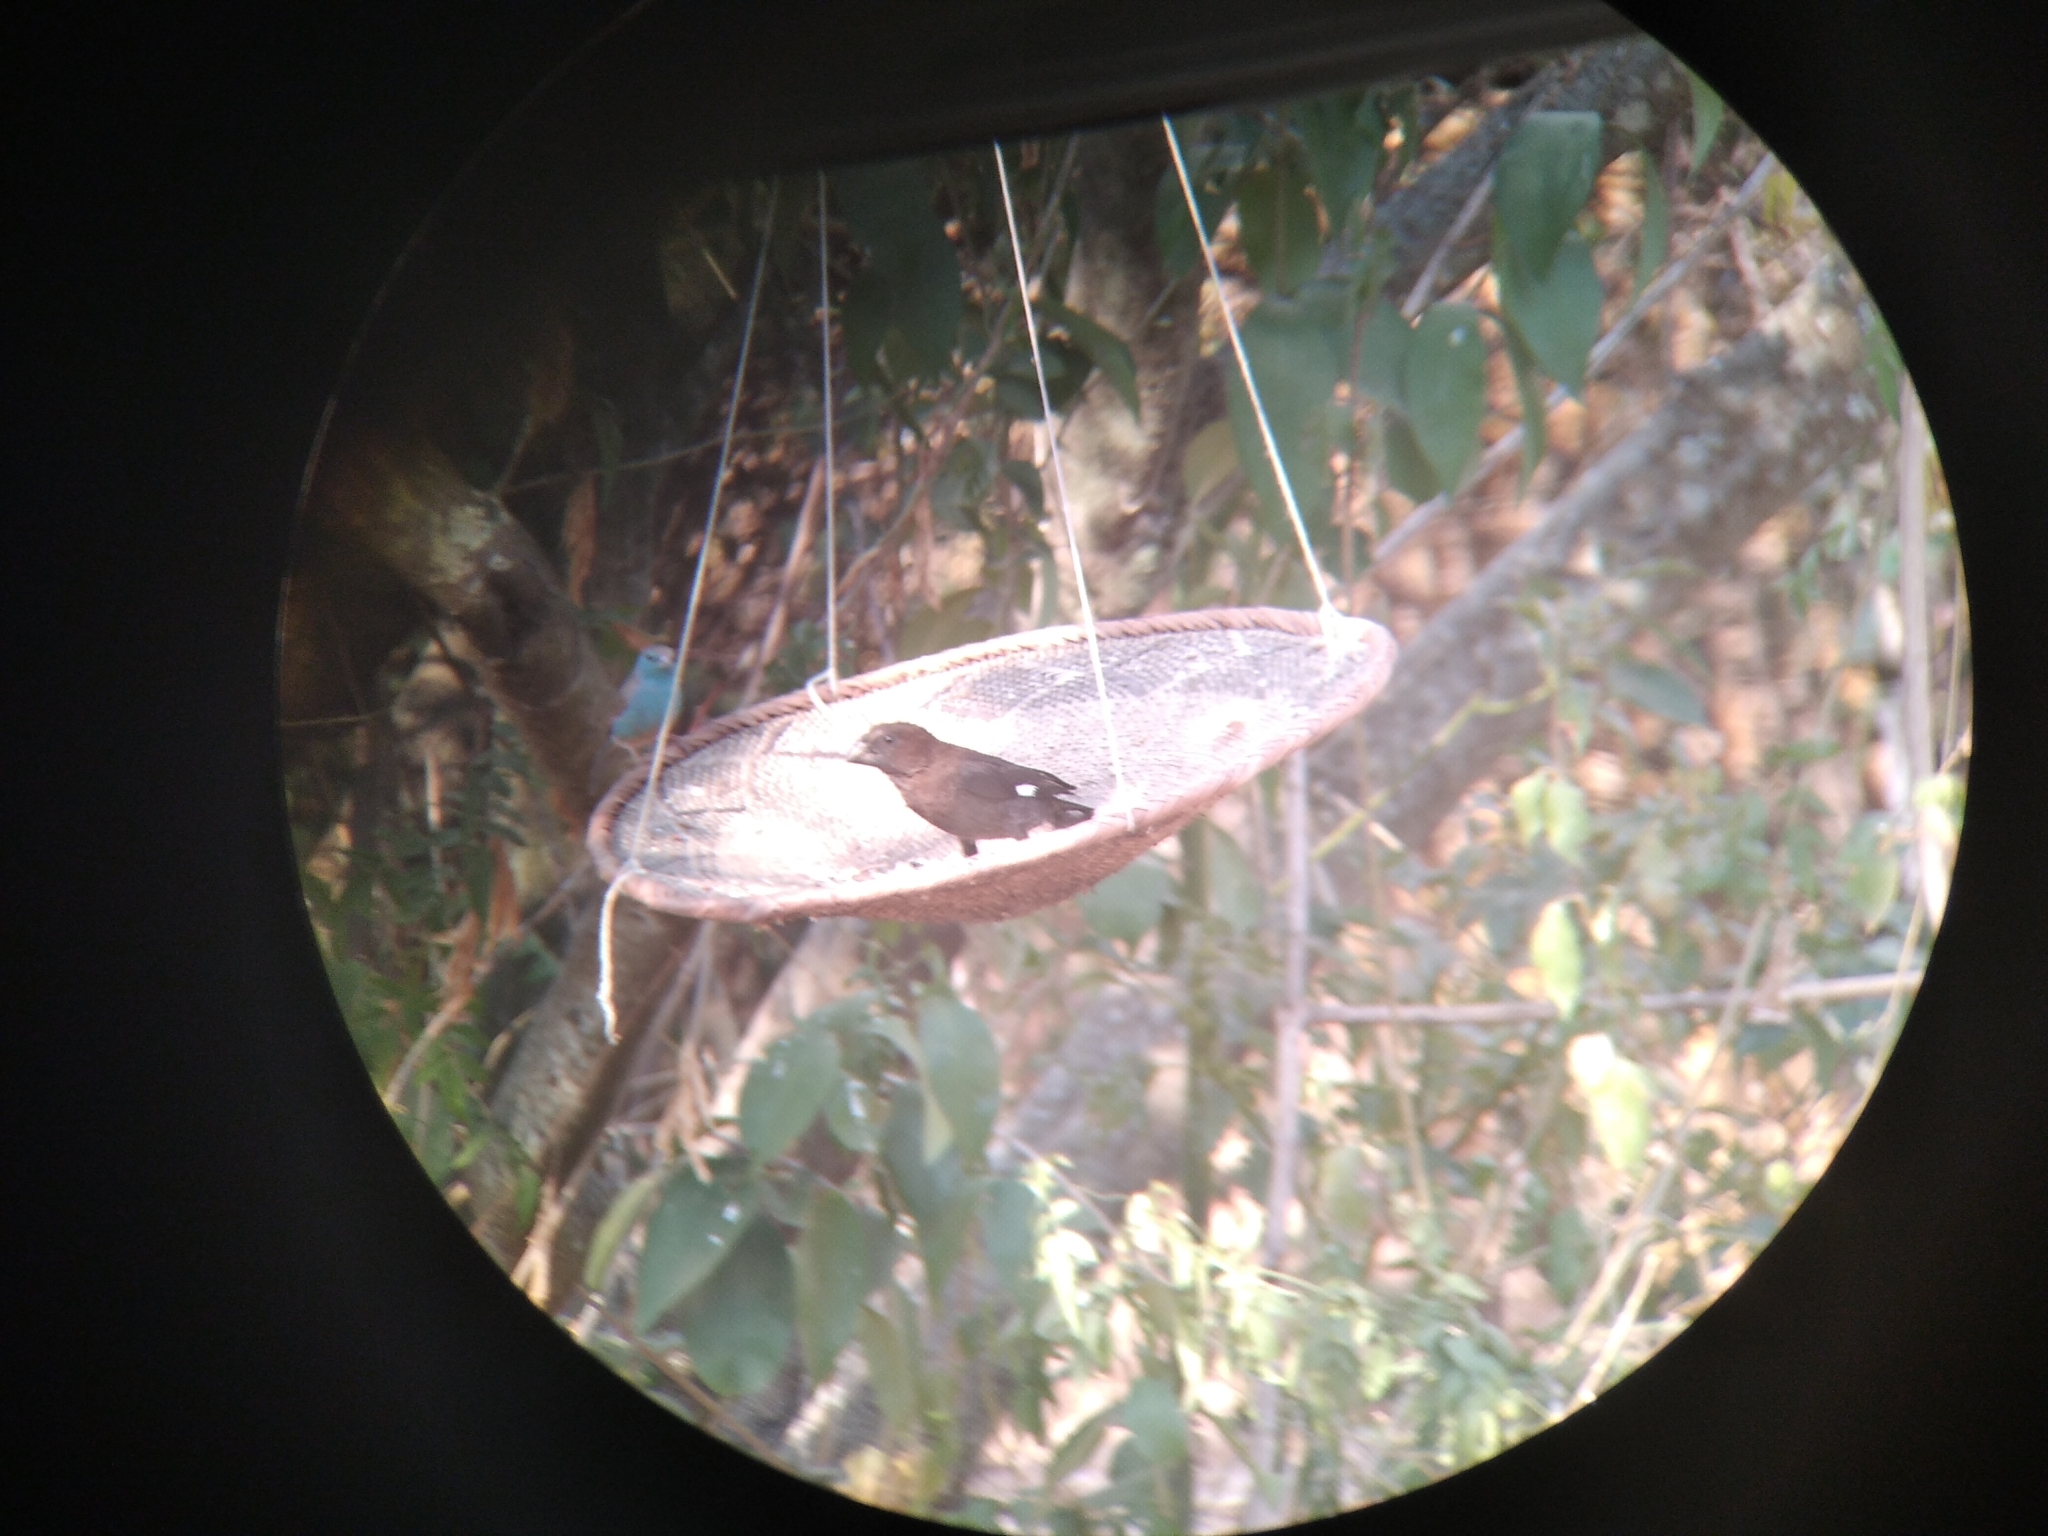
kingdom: Animalia
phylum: Chordata
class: Aves
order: Passeriformes
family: Ploceidae
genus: Amblyospiza
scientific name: Amblyospiza albifrons
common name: Thick-billed weaver
